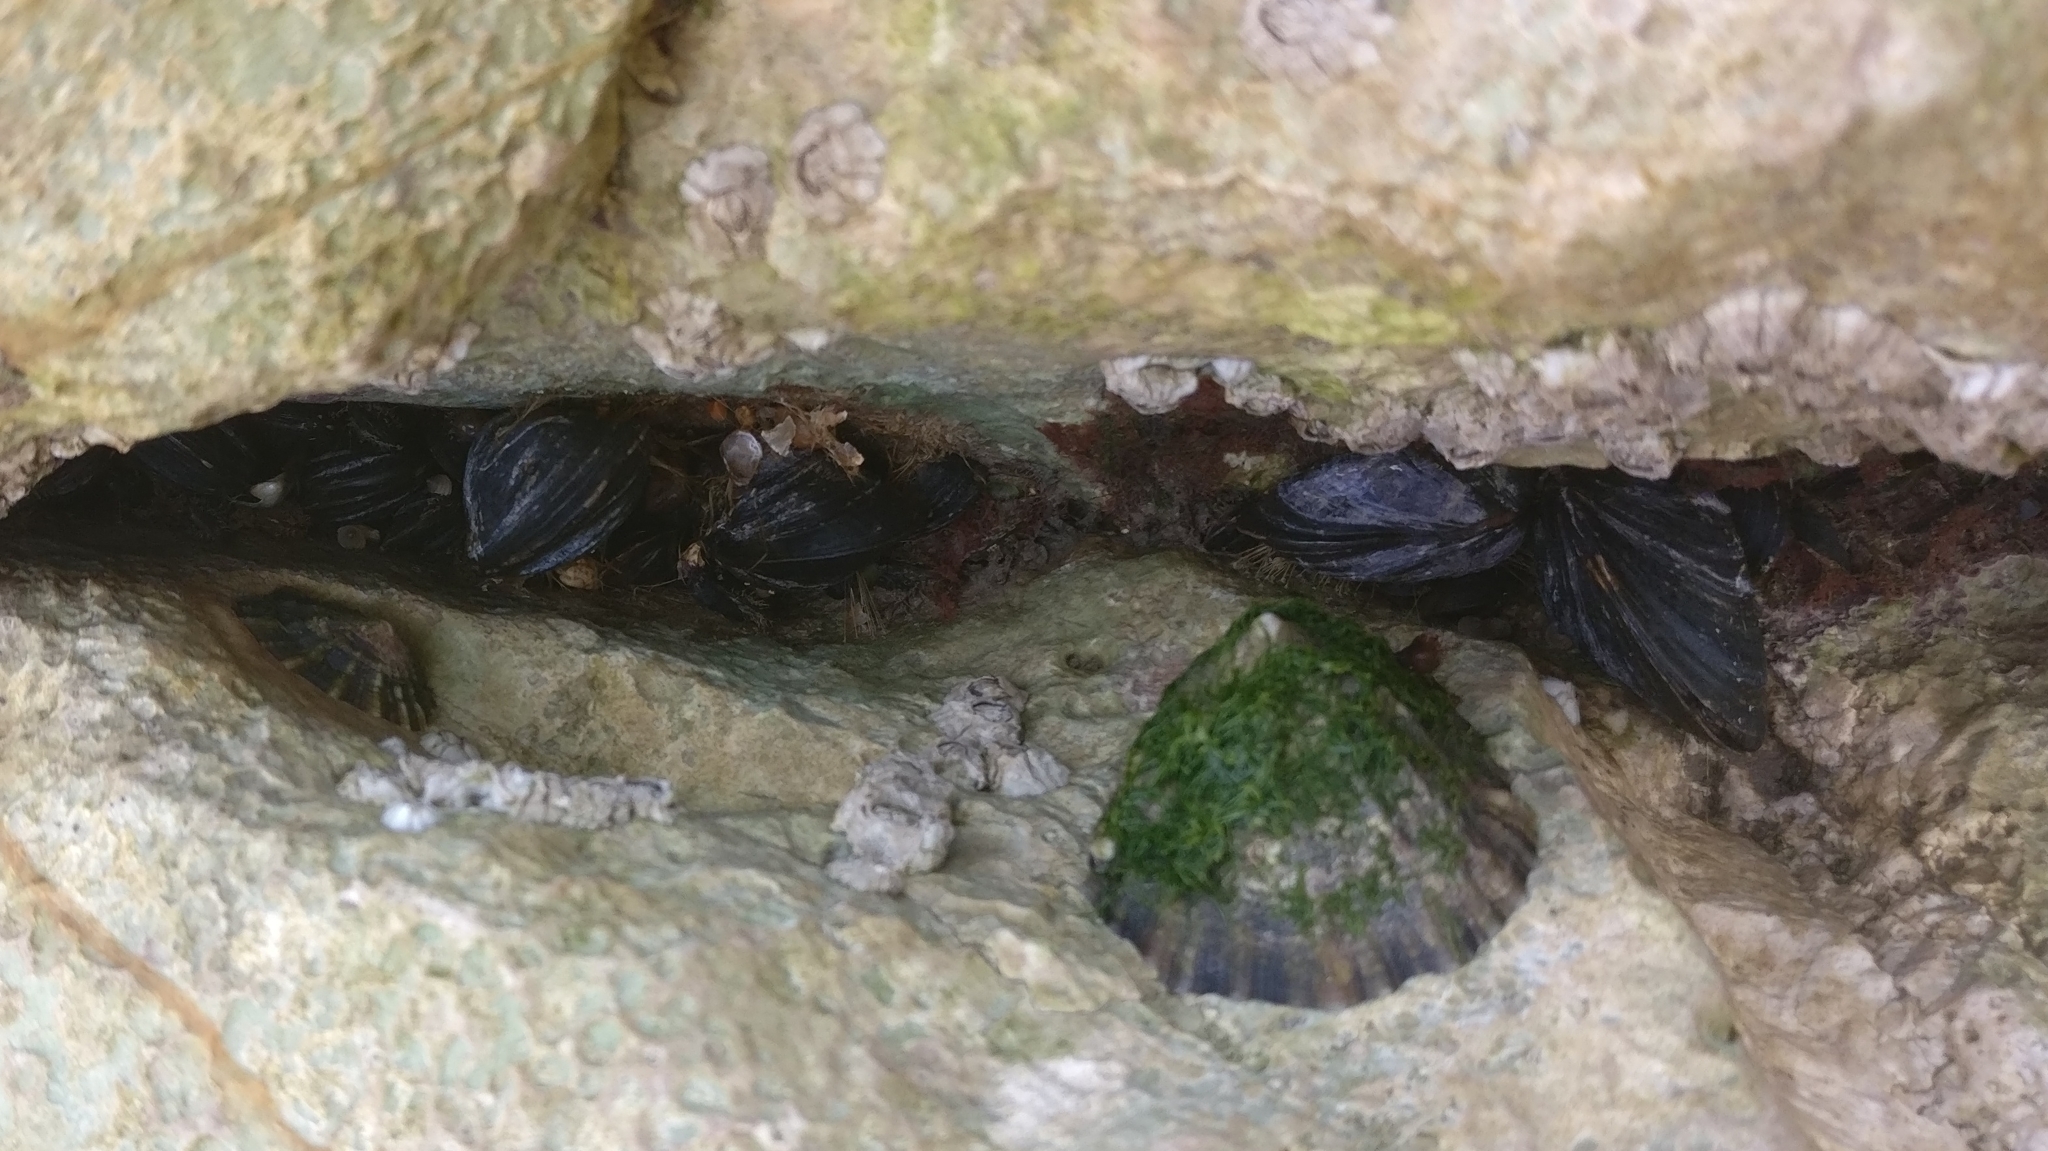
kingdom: Animalia
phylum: Mollusca
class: Bivalvia
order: Mytilida
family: Mytilidae
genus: Mytilus
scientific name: Mytilus edulis
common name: Blue mussel
